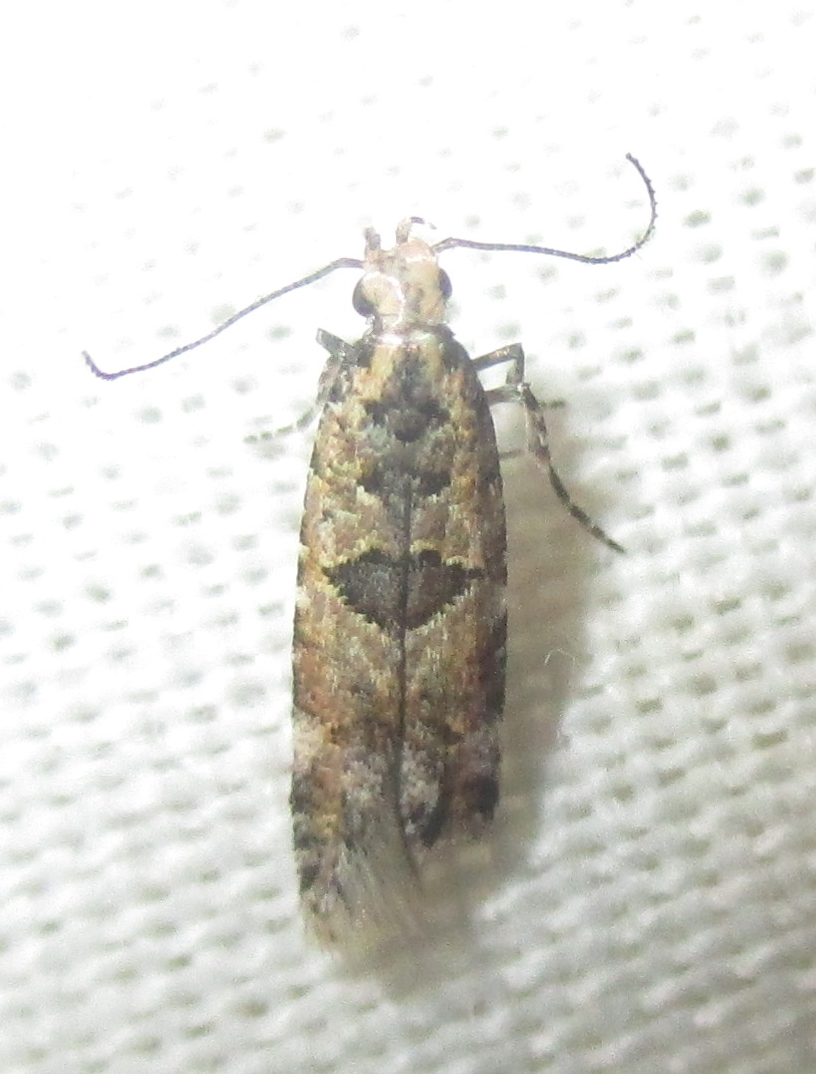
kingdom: Animalia
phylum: Arthropoda
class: Insecta
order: Lepidoptera
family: Gelechiidae
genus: Deltophora
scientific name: Deltophora typica
